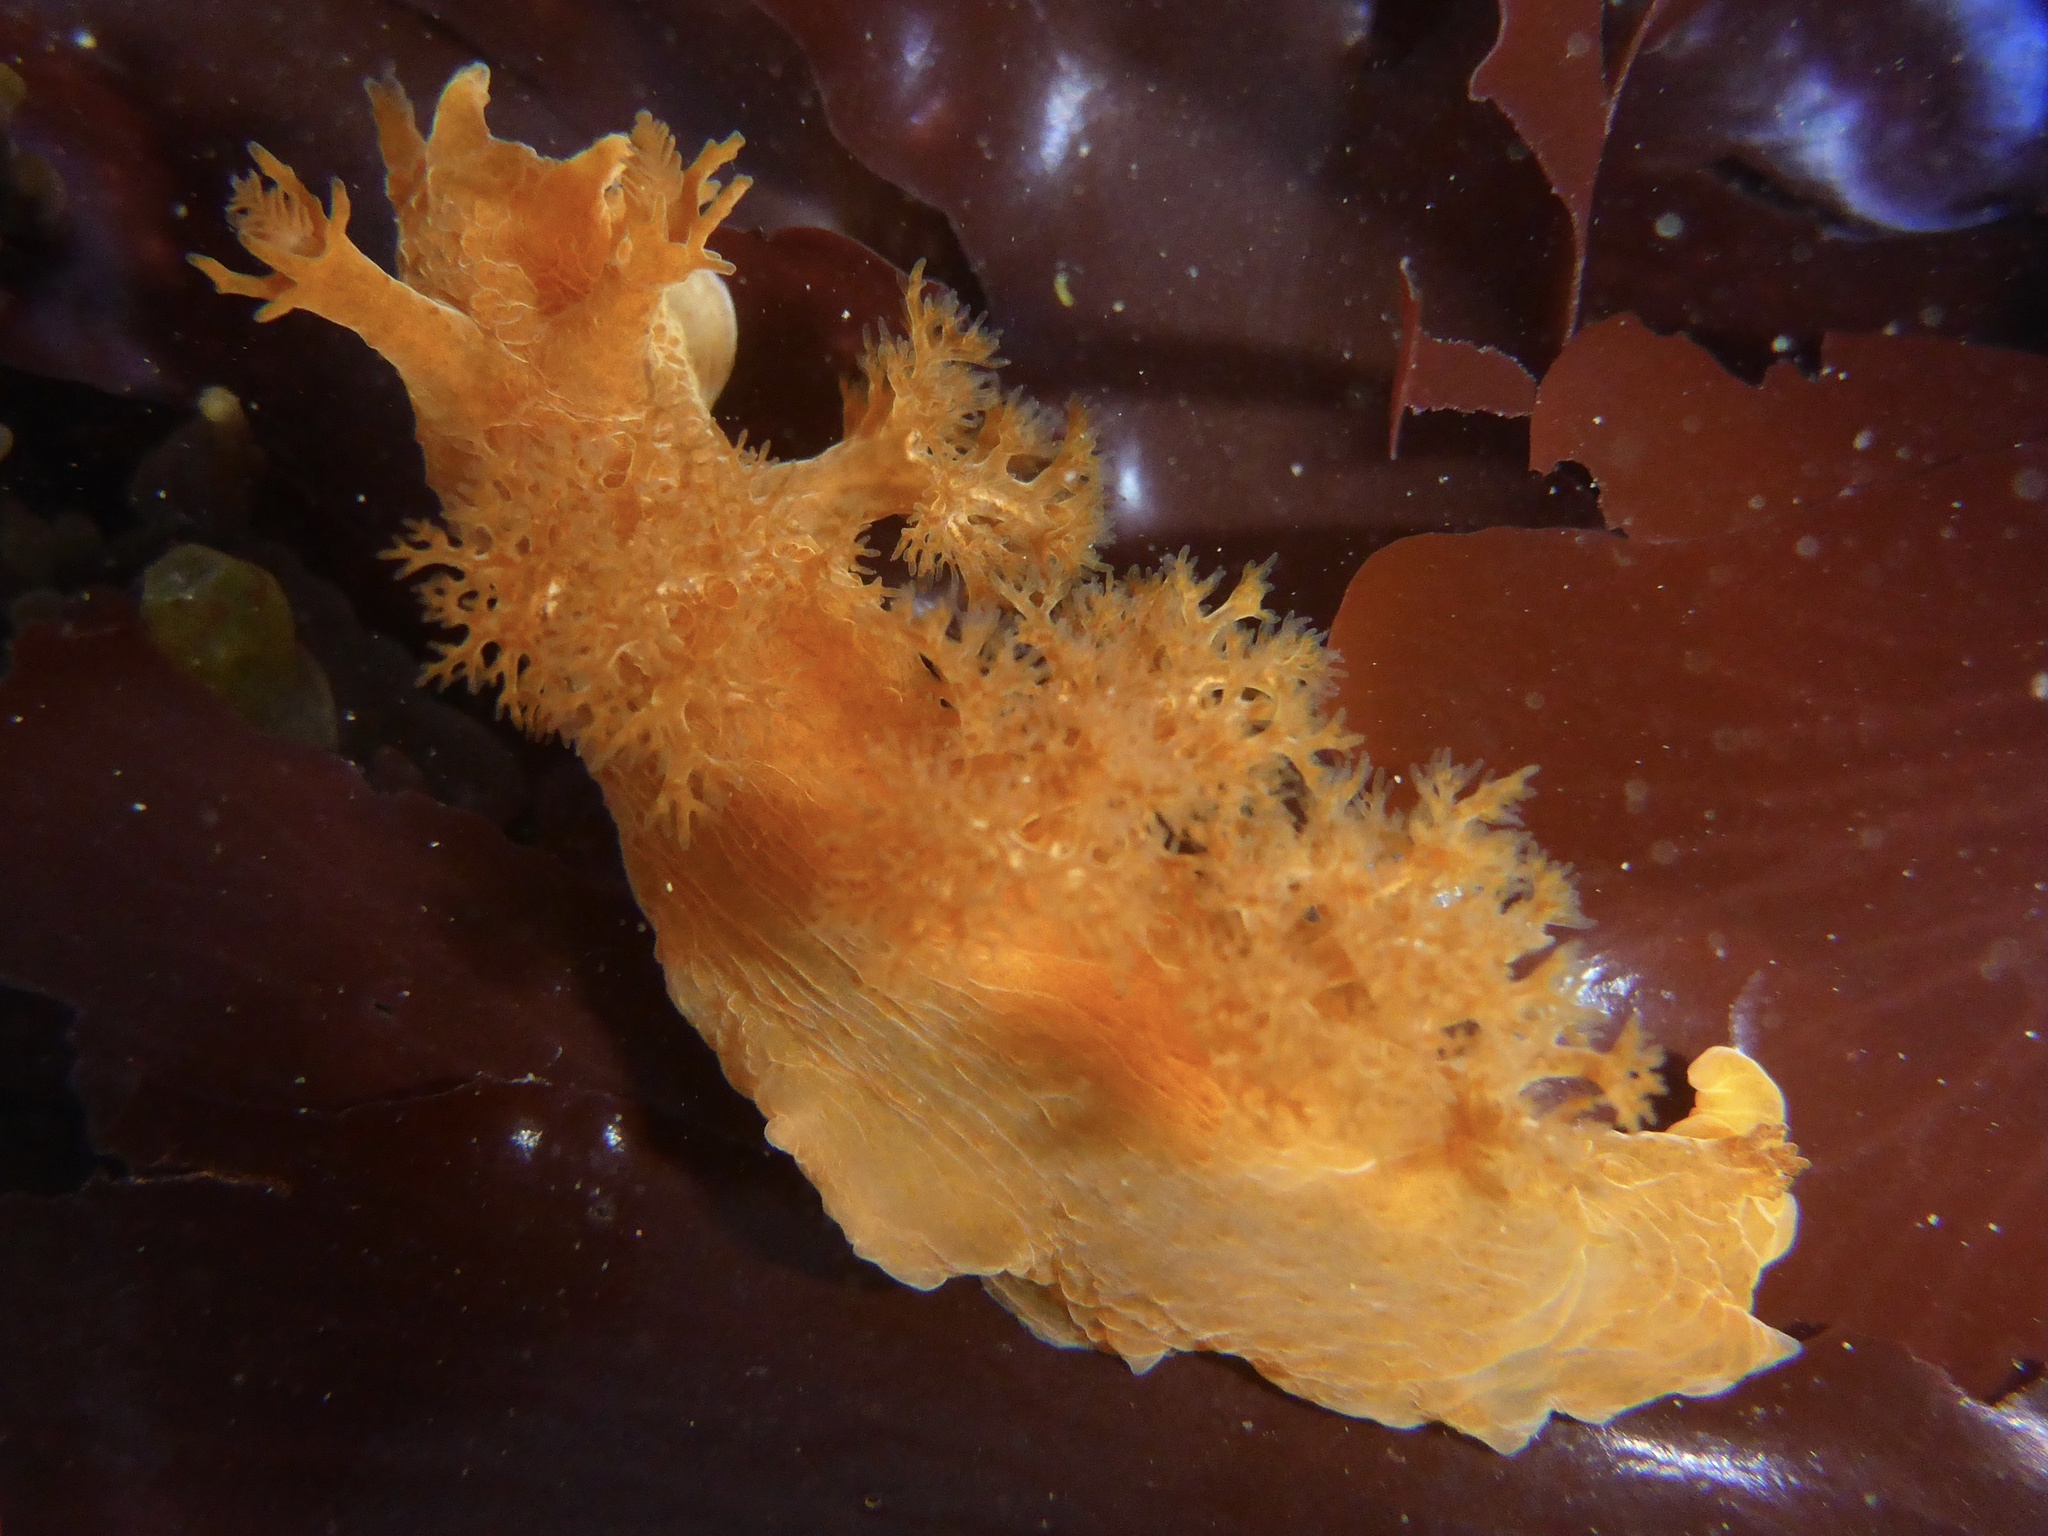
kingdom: Animalia
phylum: Mollusca
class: Gastropoda
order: Nudibranchia
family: Dendronotidae
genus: Dendronotus
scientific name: Dendronotus subramosus
